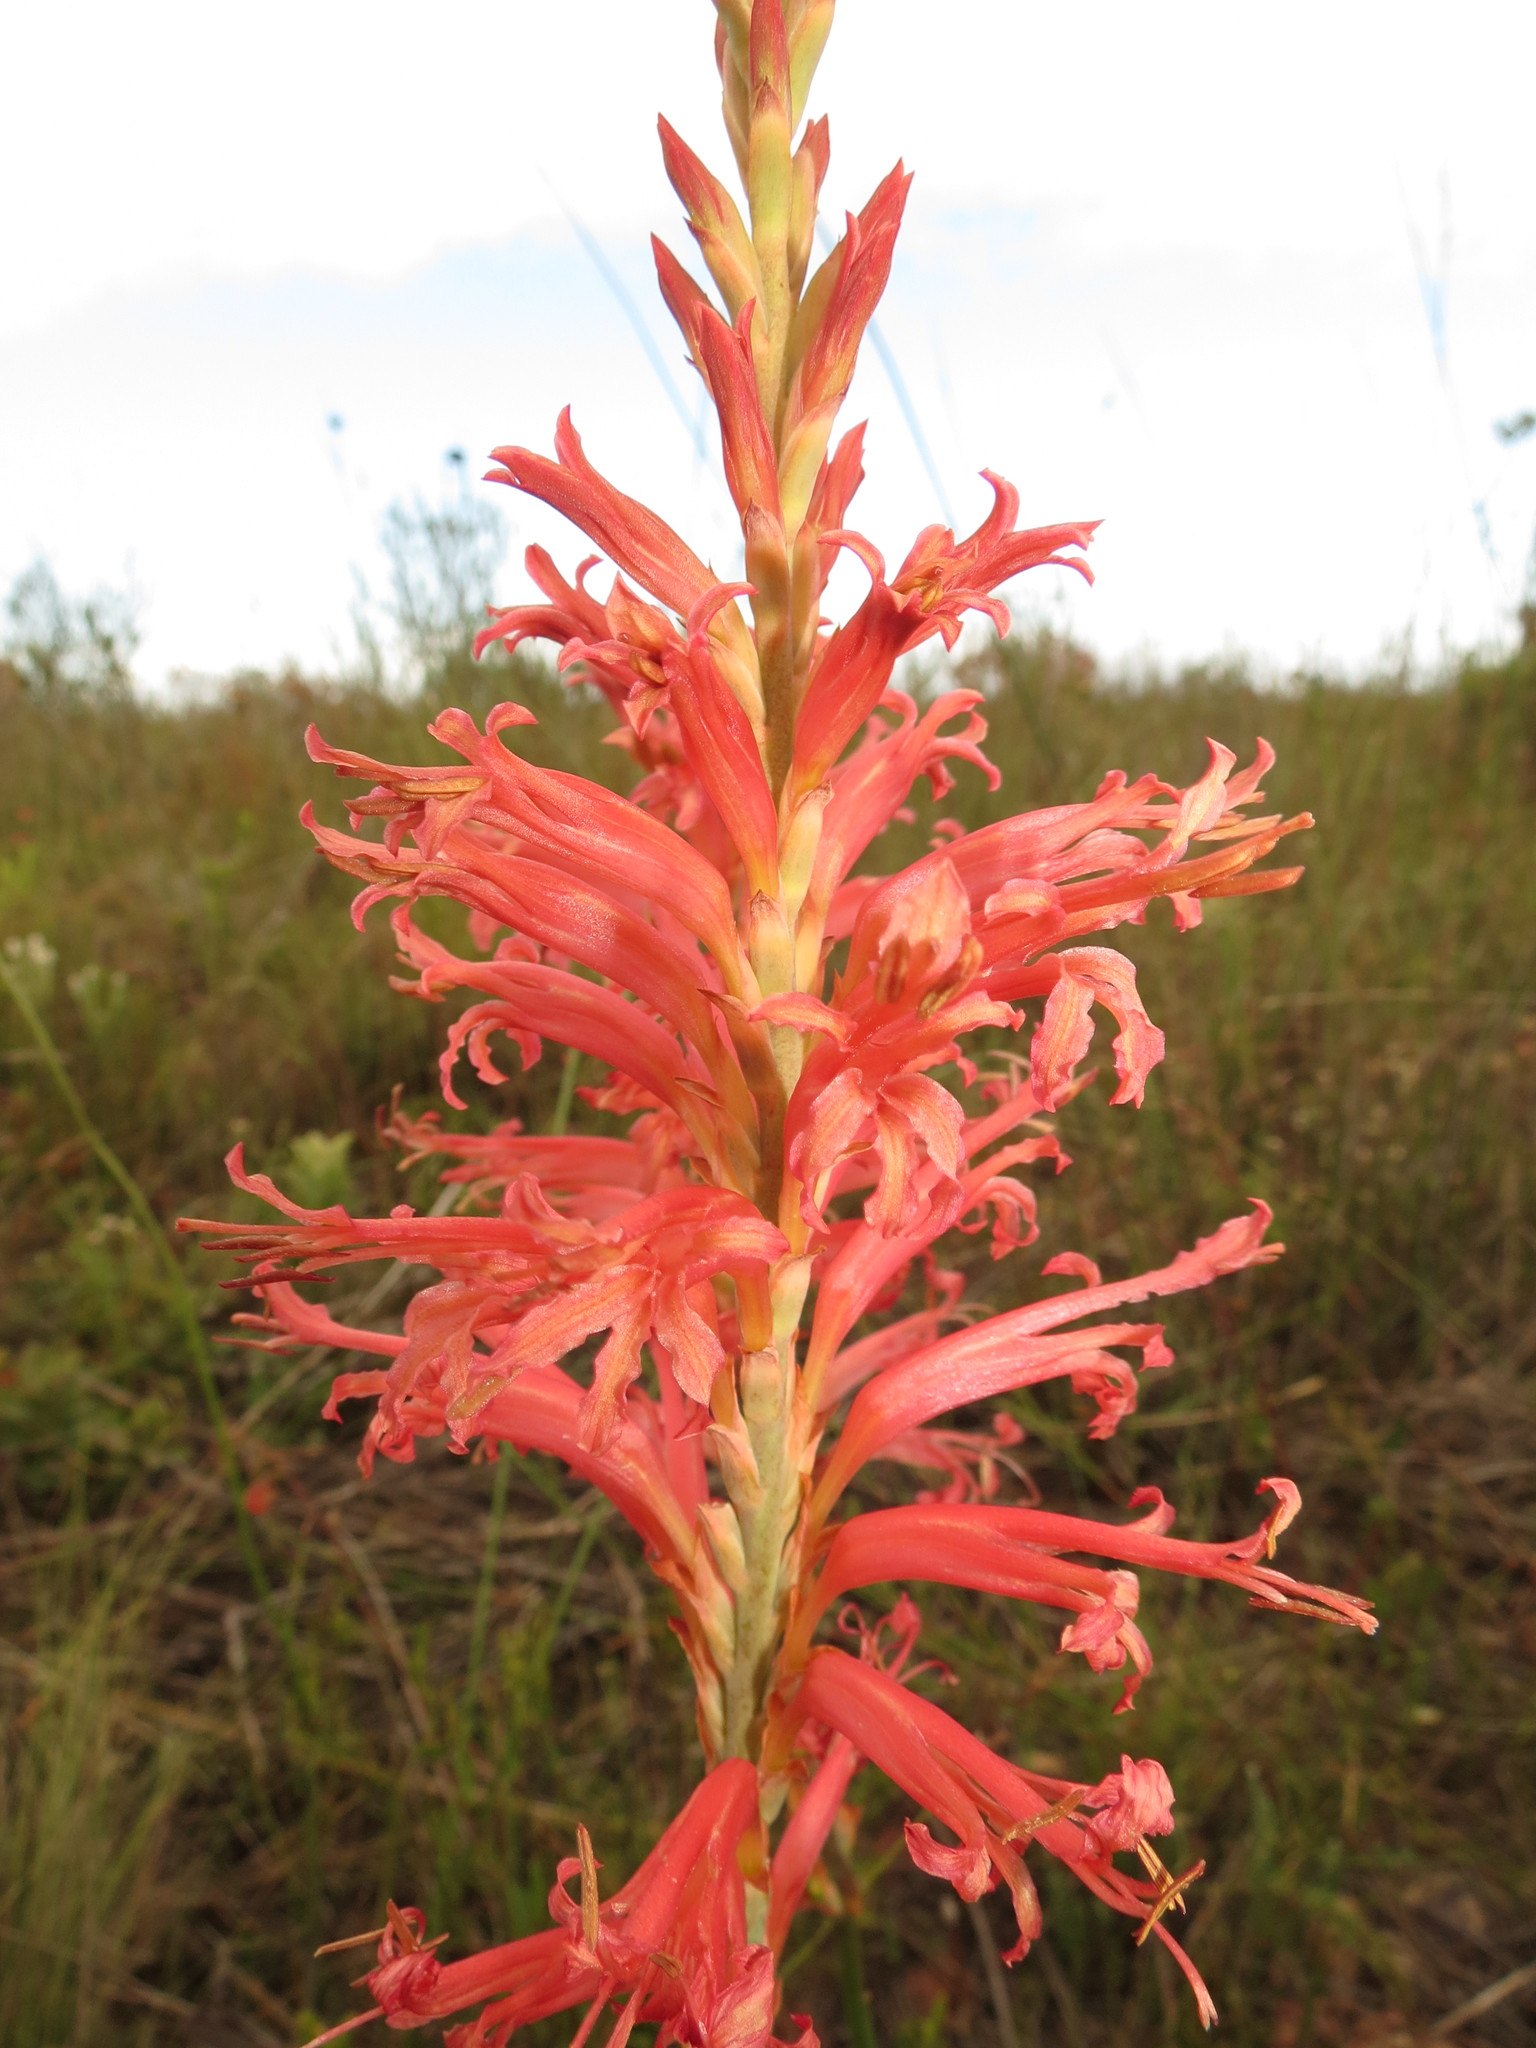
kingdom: Plantae
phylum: Tracheophyta
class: Liliopsida
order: Asparagales
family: Iridaceae
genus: Tritoniopsis
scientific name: Tritoniopsis antholyza
